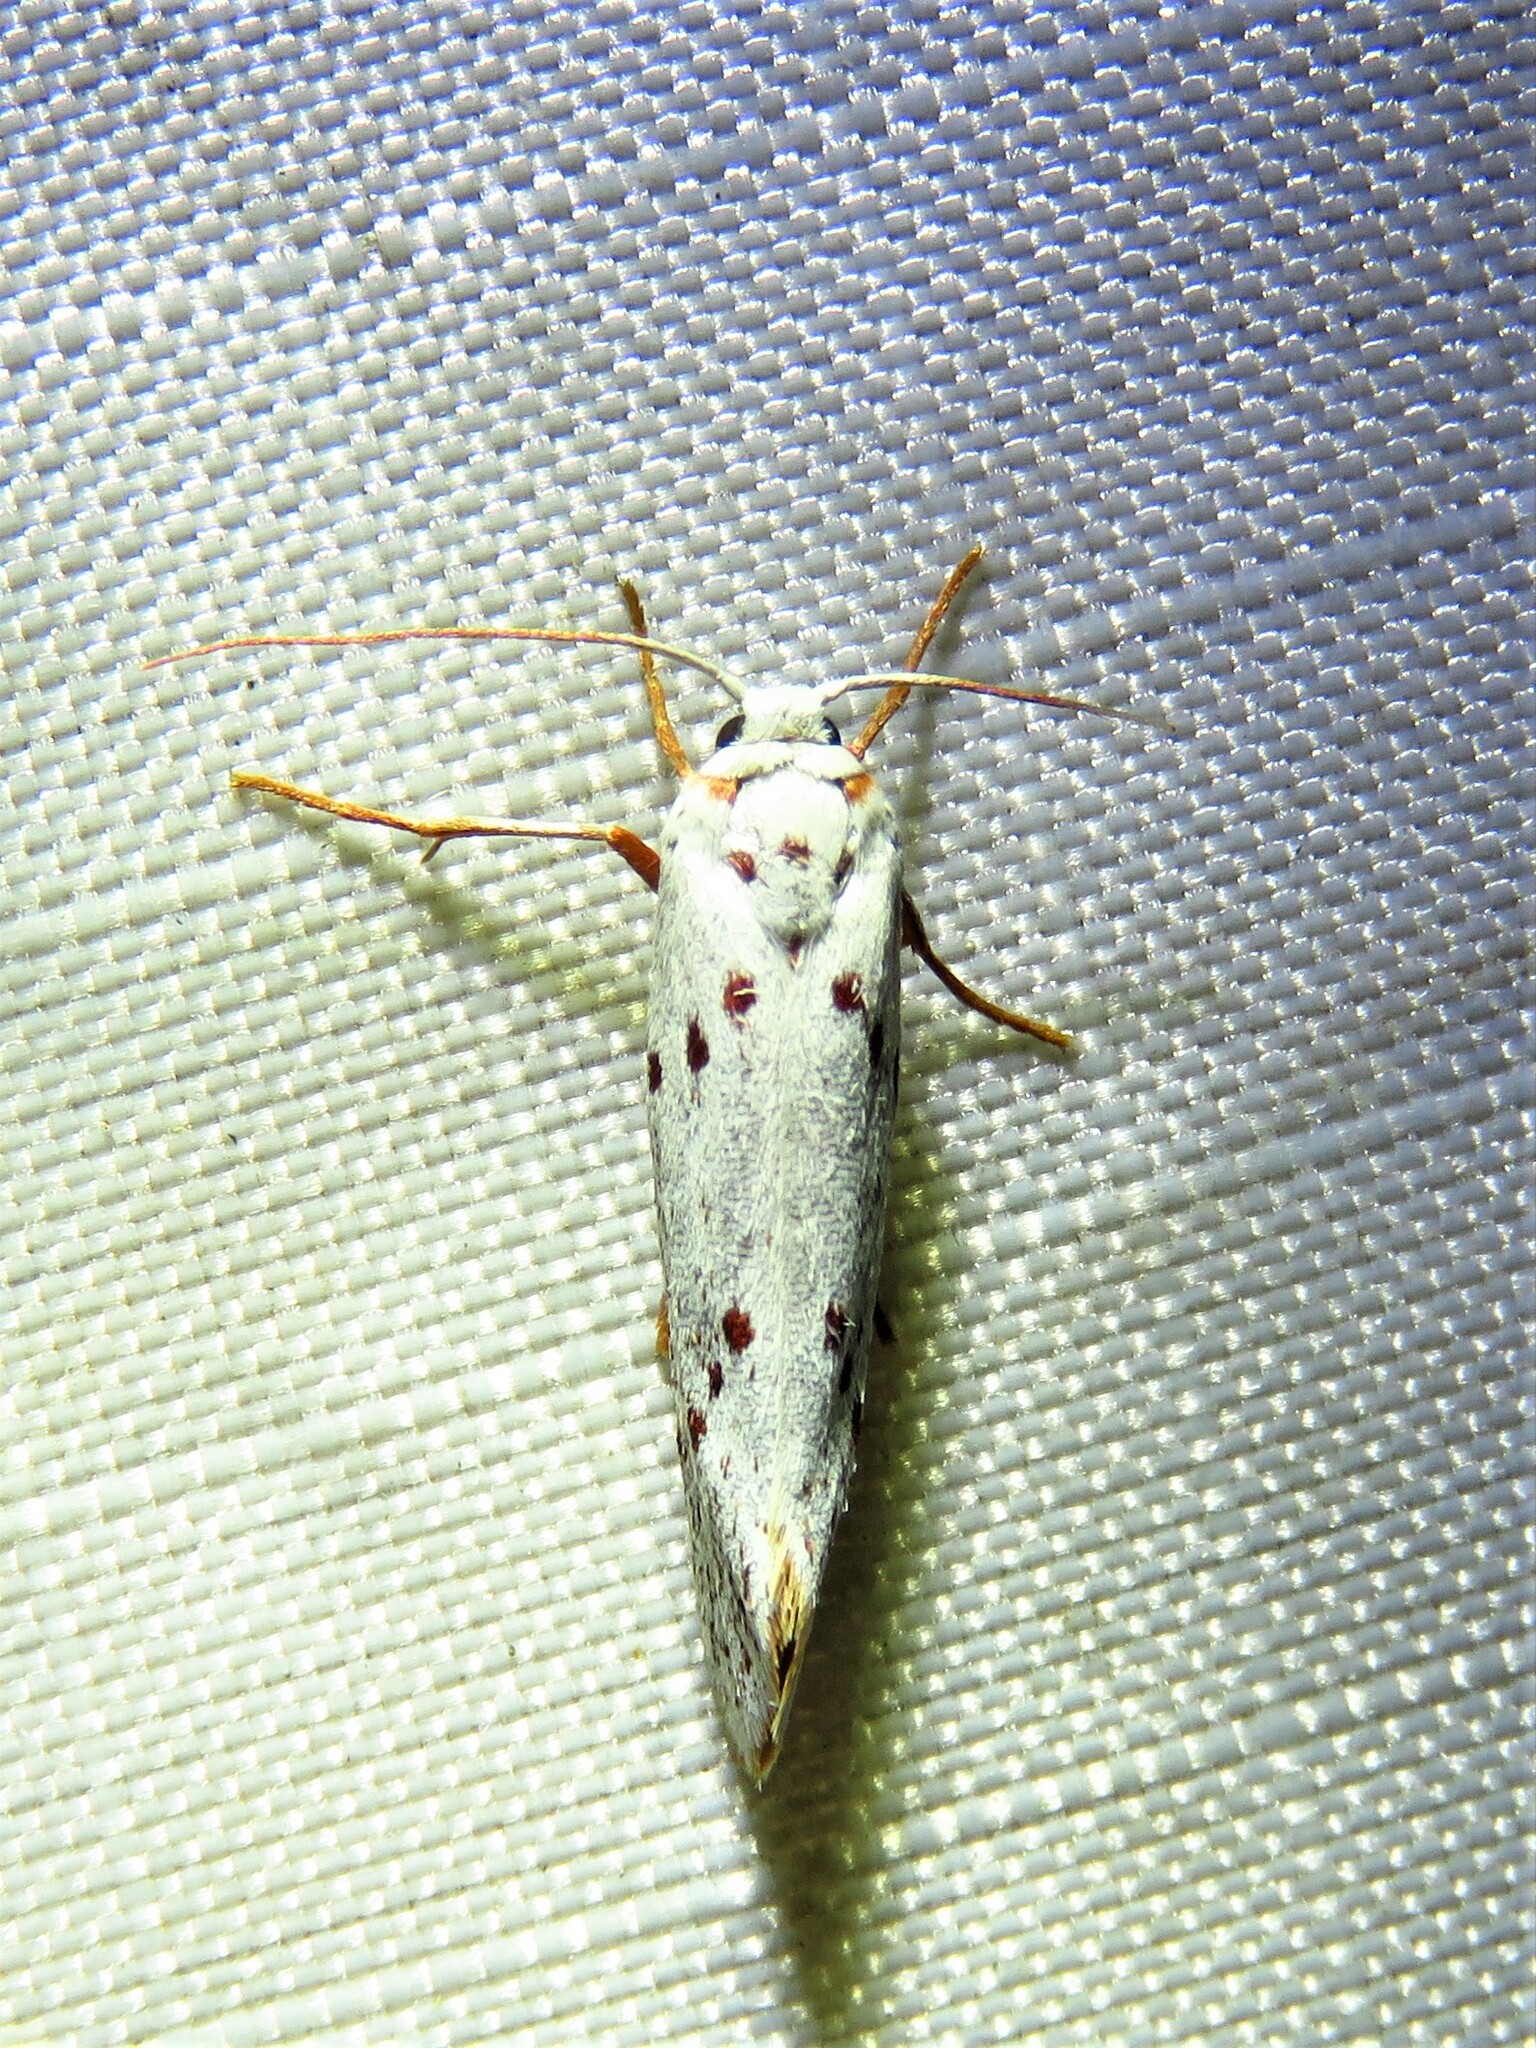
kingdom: Animalia
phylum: Arthropoda
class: Insecta
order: Lepidoptera
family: Lacturidae
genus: Lactura
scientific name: Lactura
